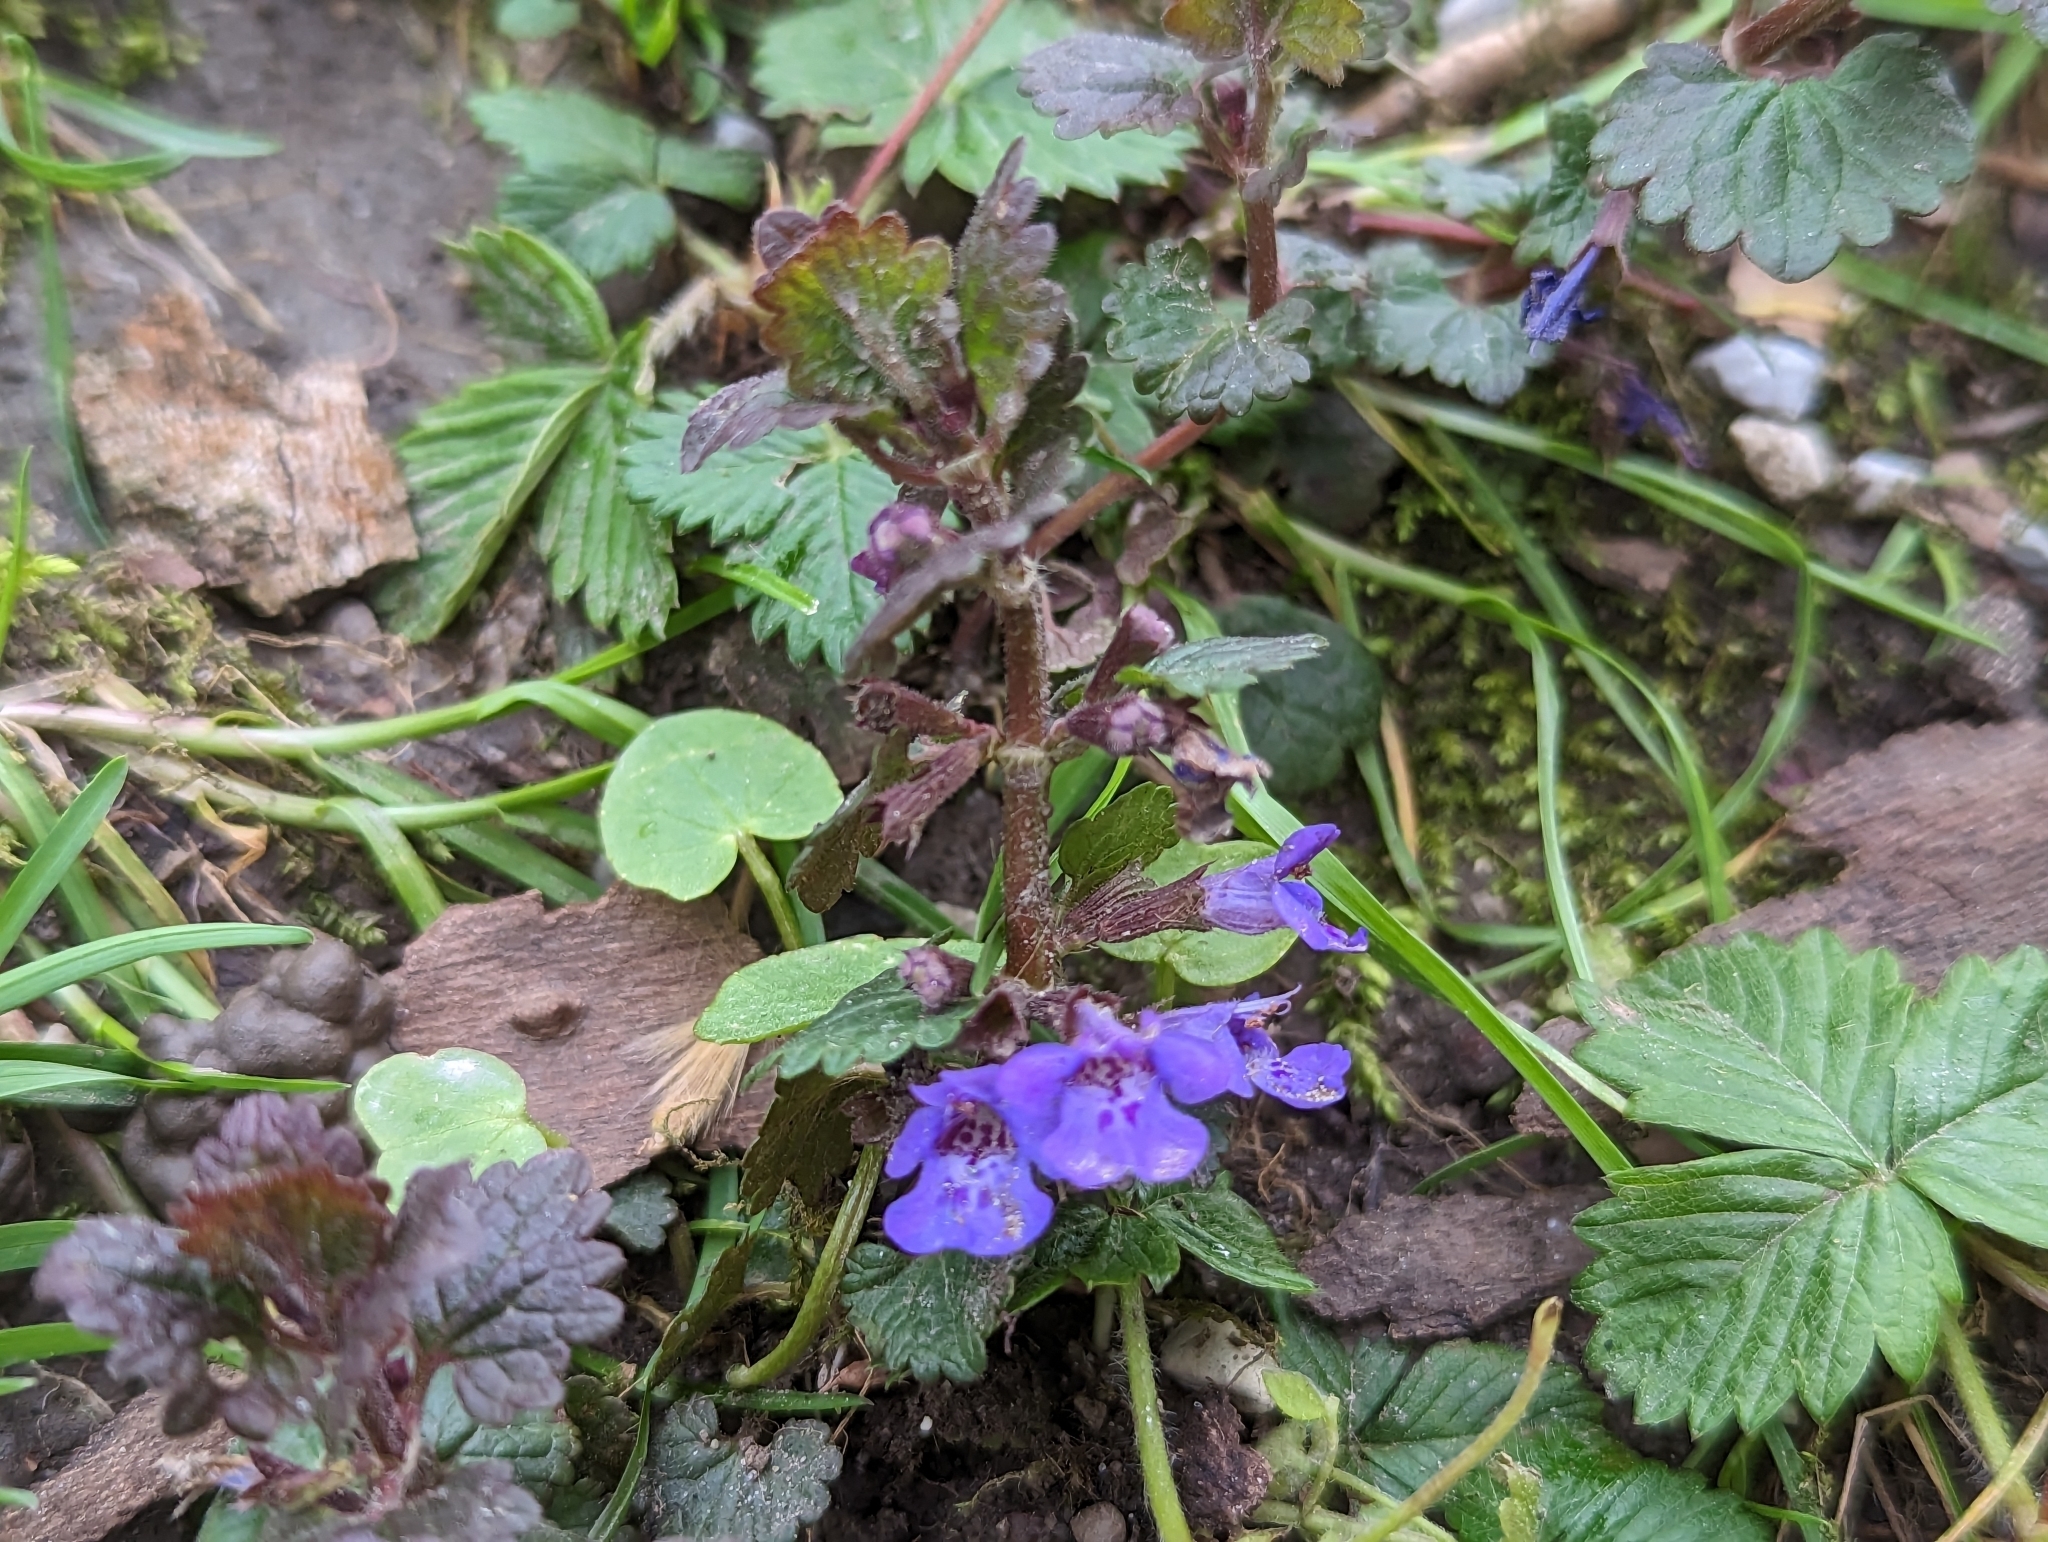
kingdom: Plantae
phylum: Tracheophyta
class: Magnoliopsida
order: Lamiales
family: Lamiaceae
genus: Glechoma
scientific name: Glechoma hederacea
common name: Ground ivy
